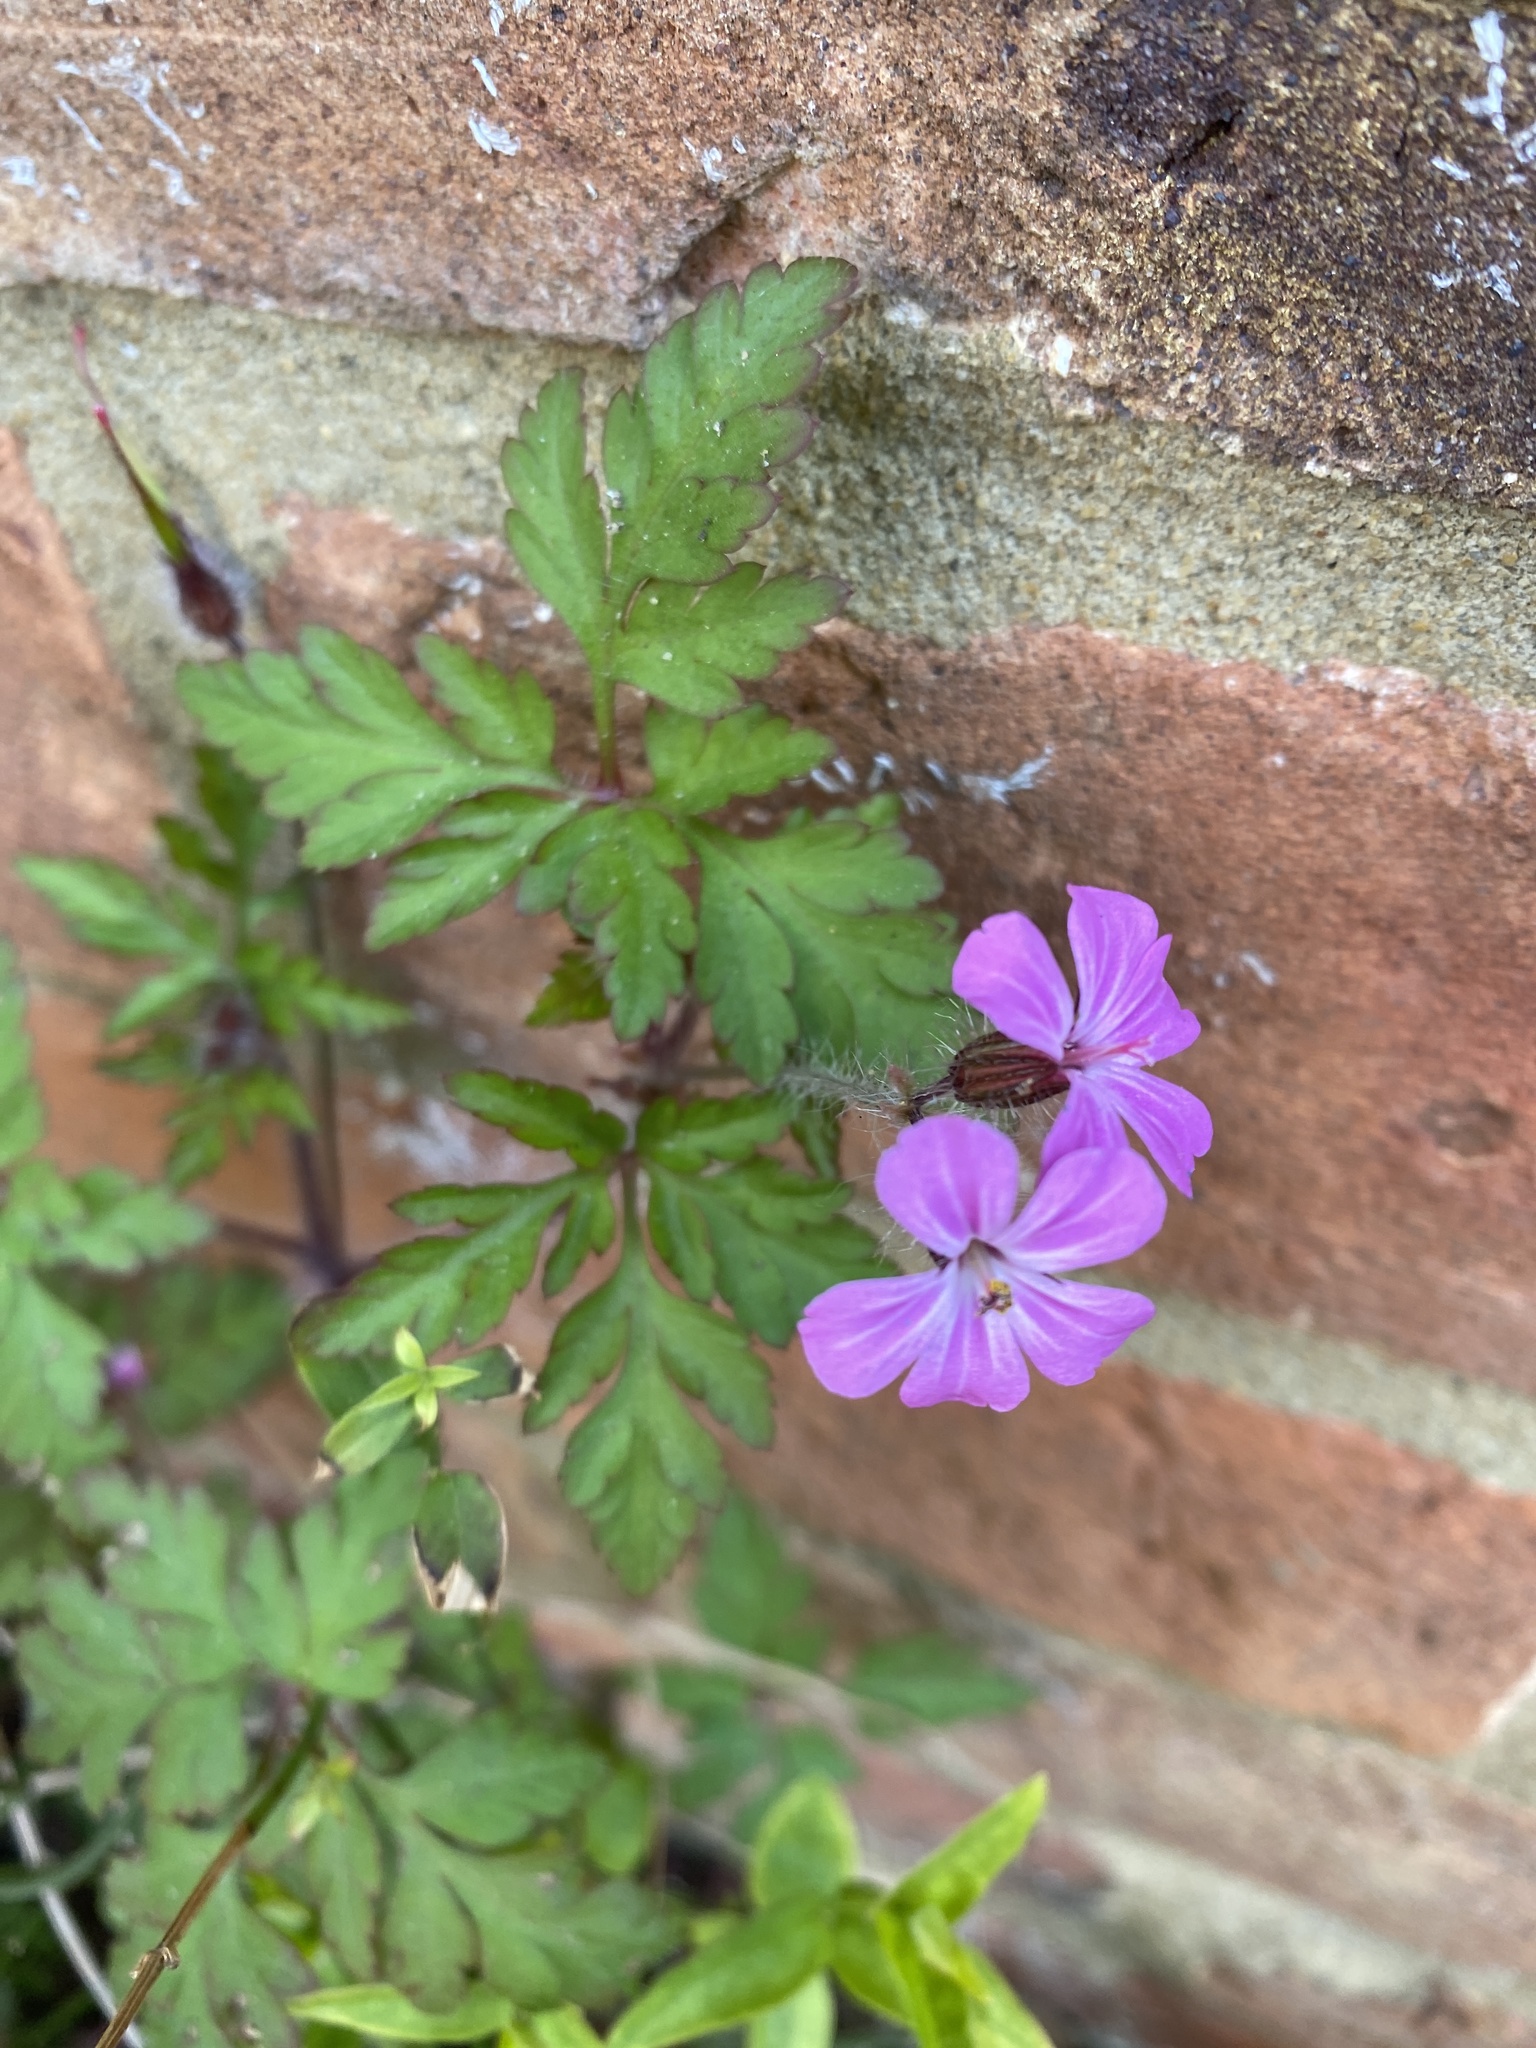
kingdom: Plantae
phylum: Tracheophyta
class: Magnoliopsida
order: Geraniales
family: Geraniaceae
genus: Geranium
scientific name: Geranium robertianum
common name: Herb-robert
